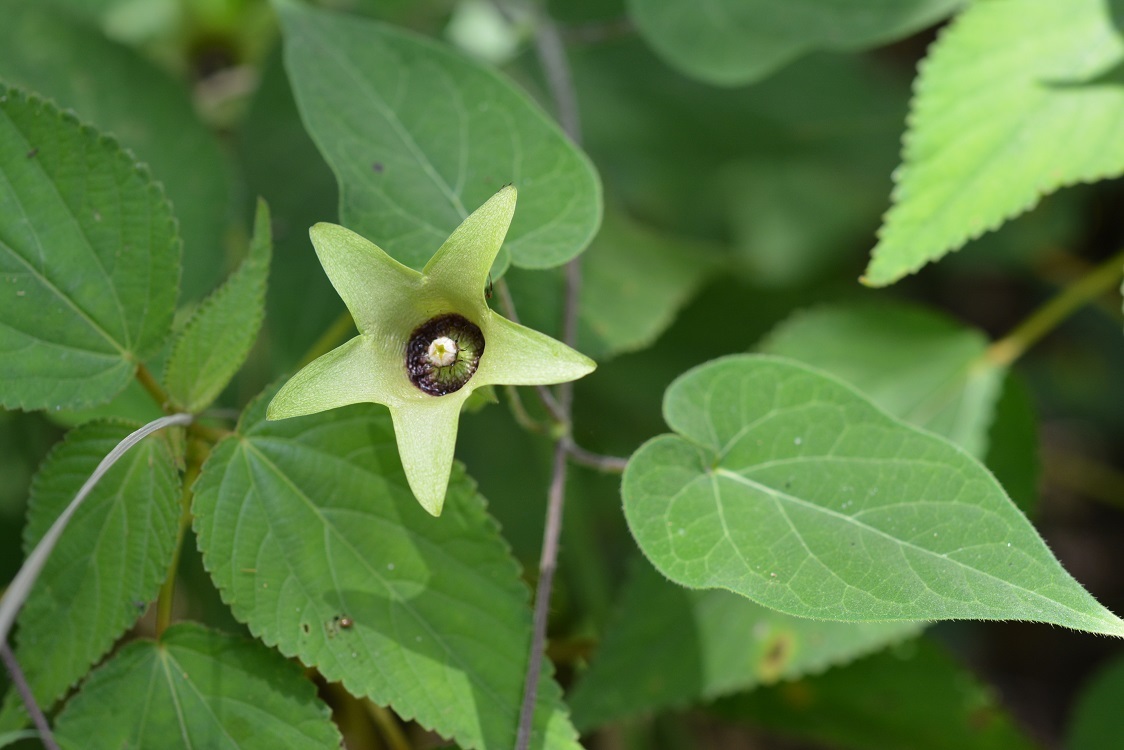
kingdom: Plantae
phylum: Tracheophyta
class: Magnoliopsida
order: Gentianales
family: Apocynaceae
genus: Polystemma
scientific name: Polystemma scopulorum
